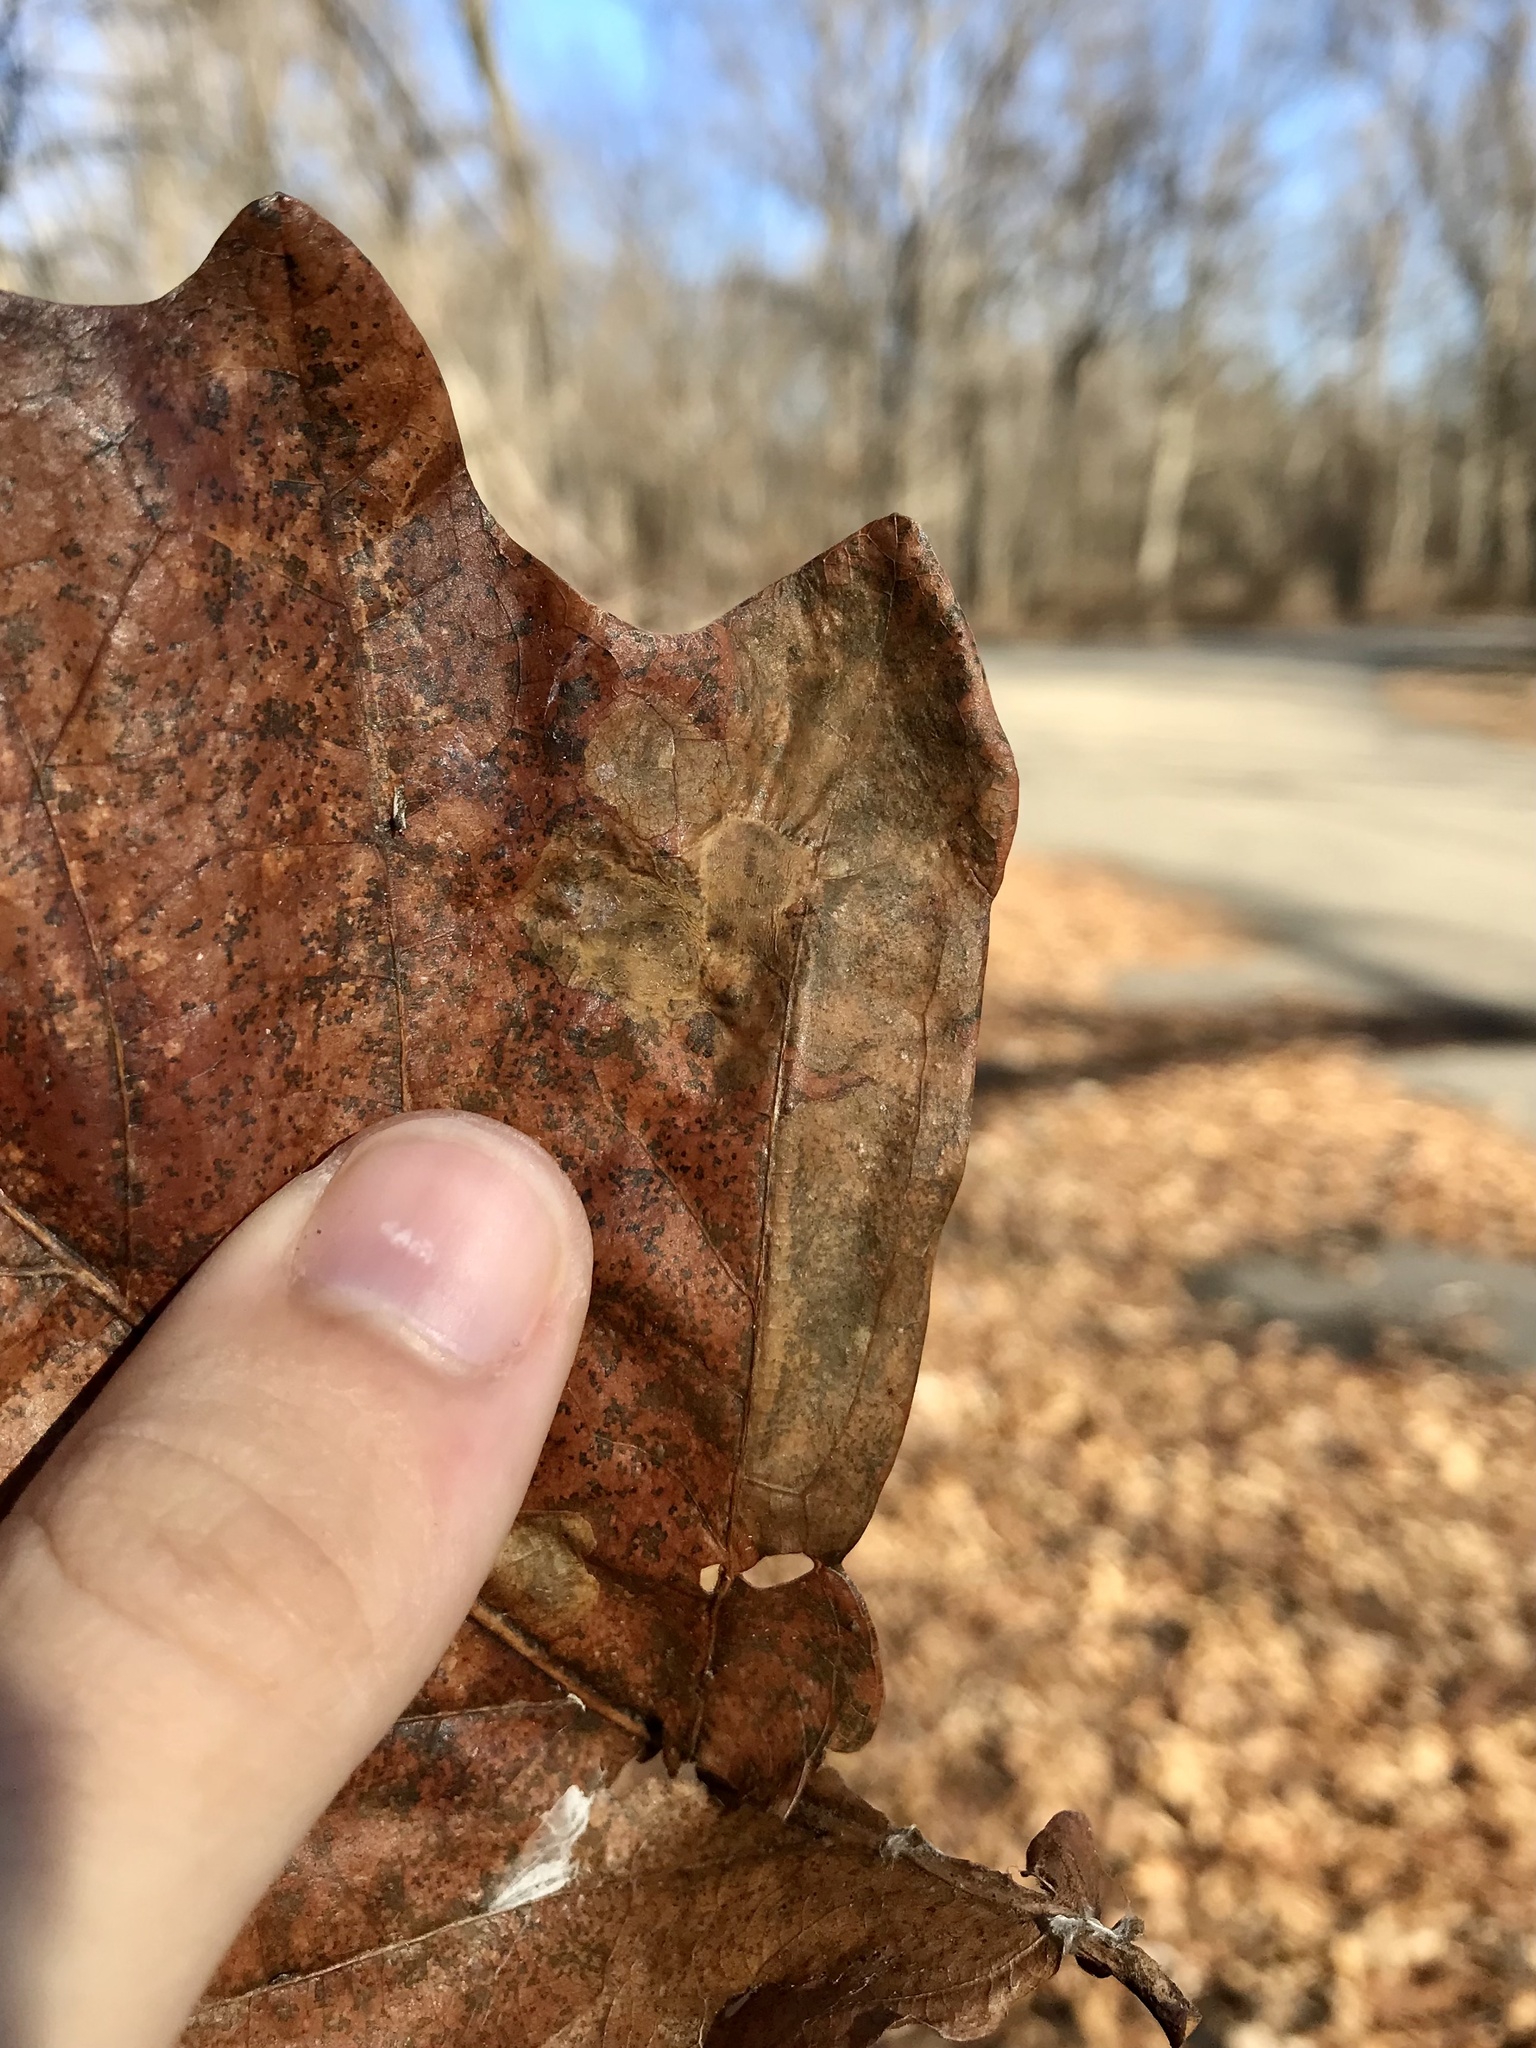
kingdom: Animalia
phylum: Arthropoda
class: Insecta
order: Lepidoptera
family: Gracillariidae
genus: Cameraria
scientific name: Cameraria hamadryadella
